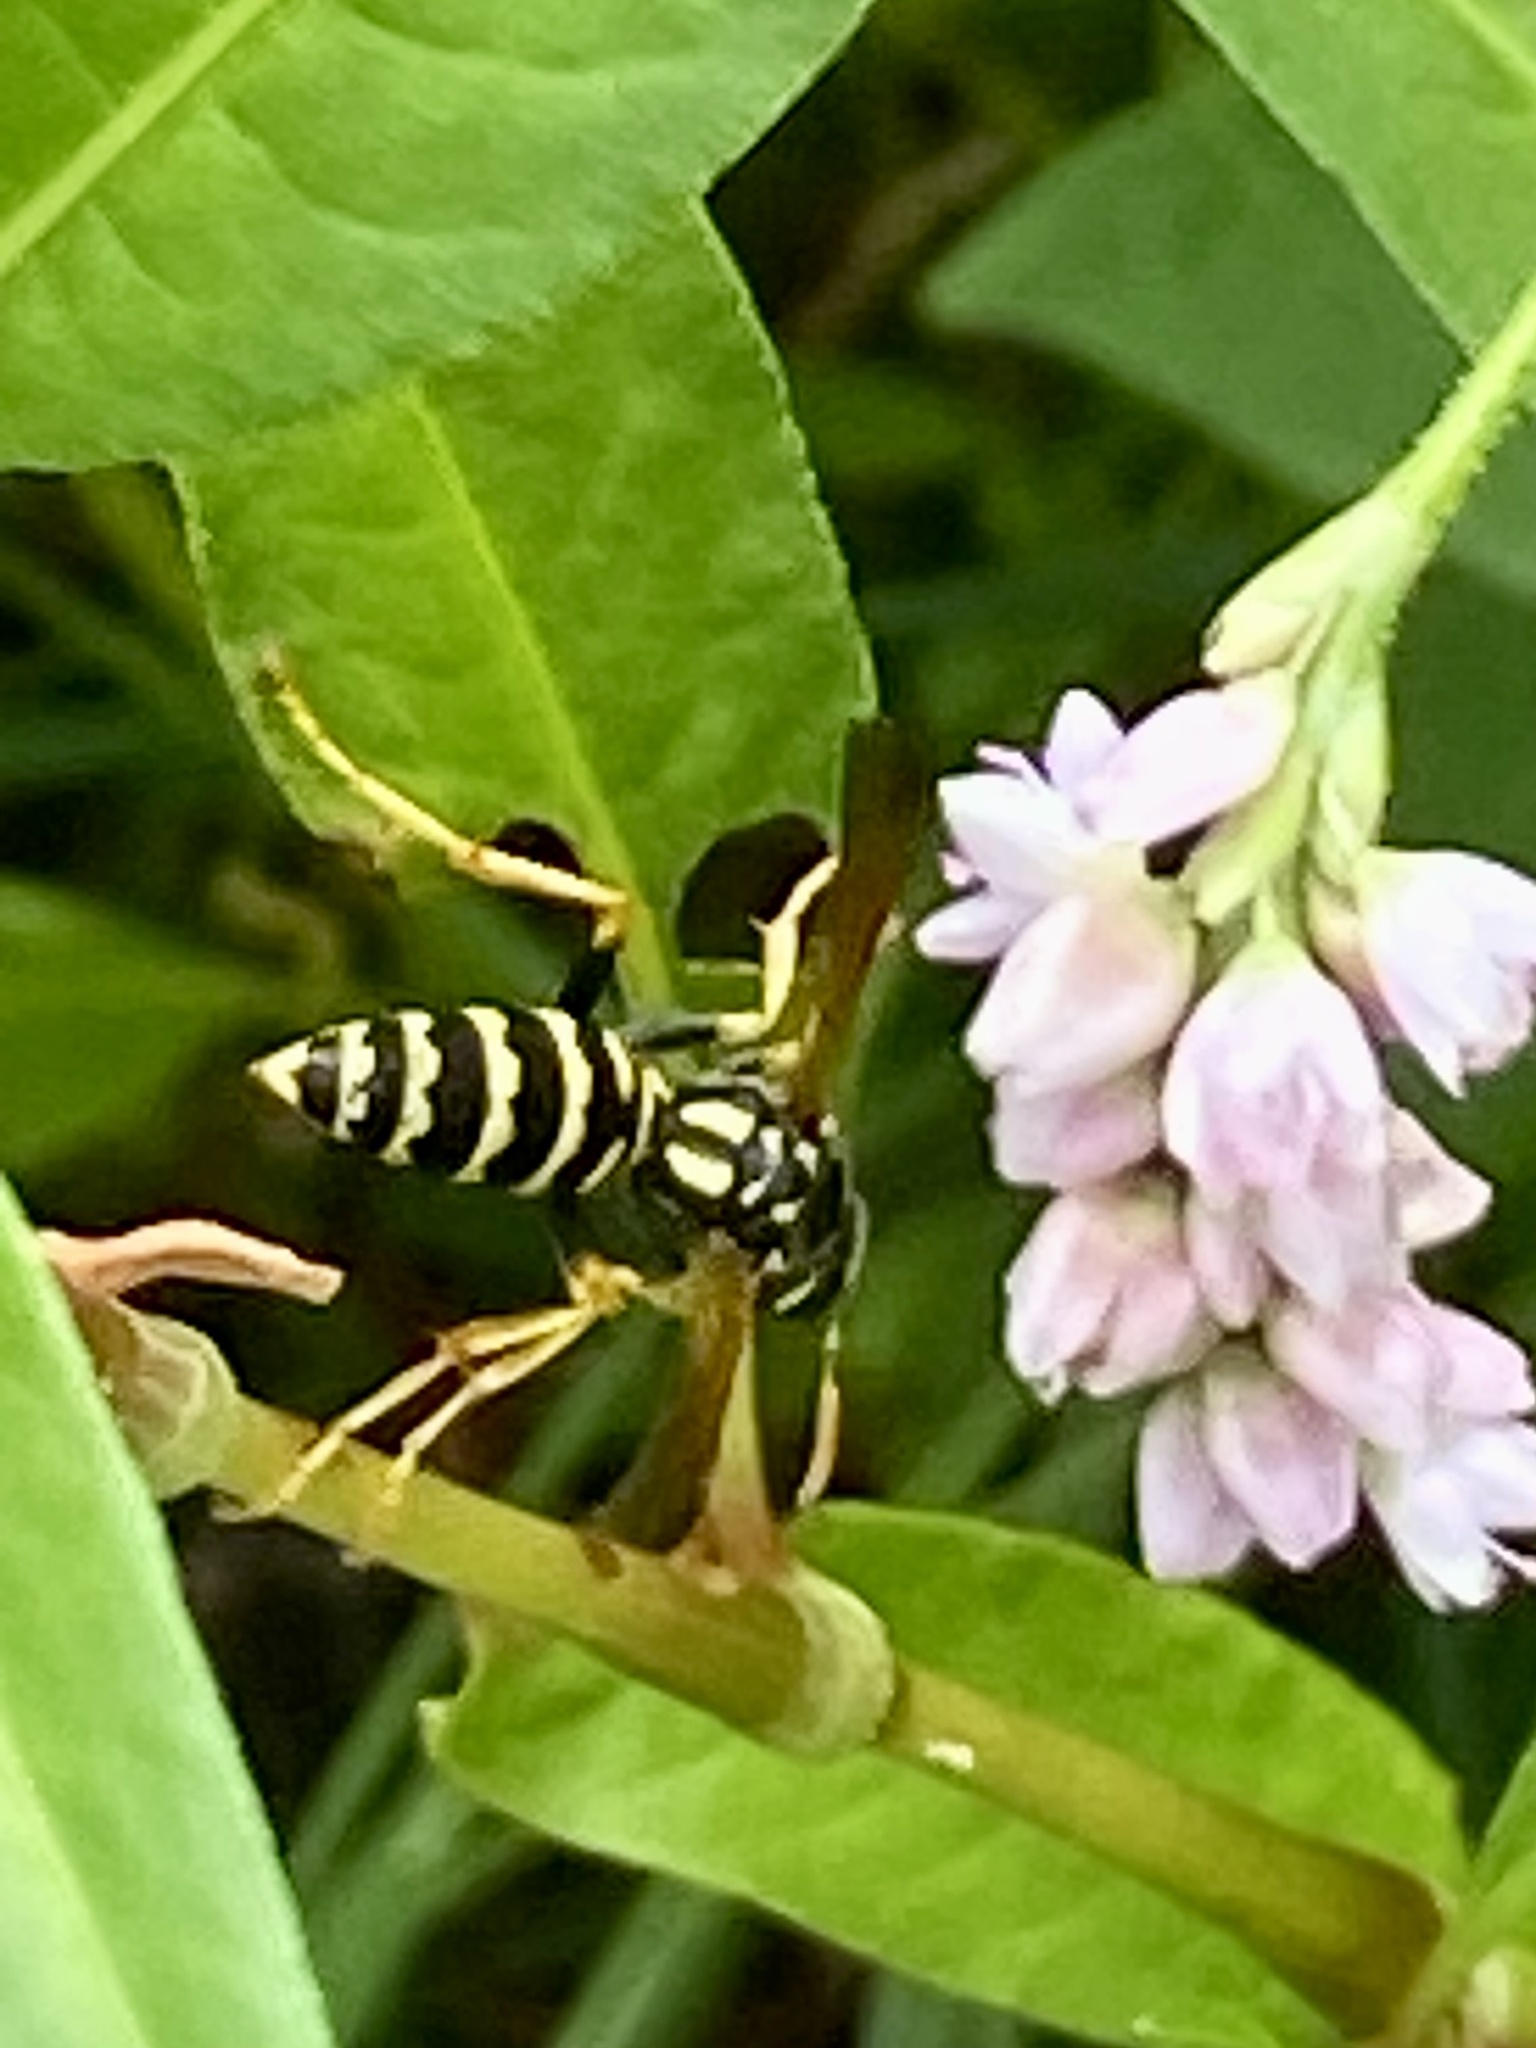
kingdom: Animalia
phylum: Arthropoda
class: Insecta
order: Hymenoptera
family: Eumenidae
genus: Polistes
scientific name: Polistes dominula
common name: Paper wasp
